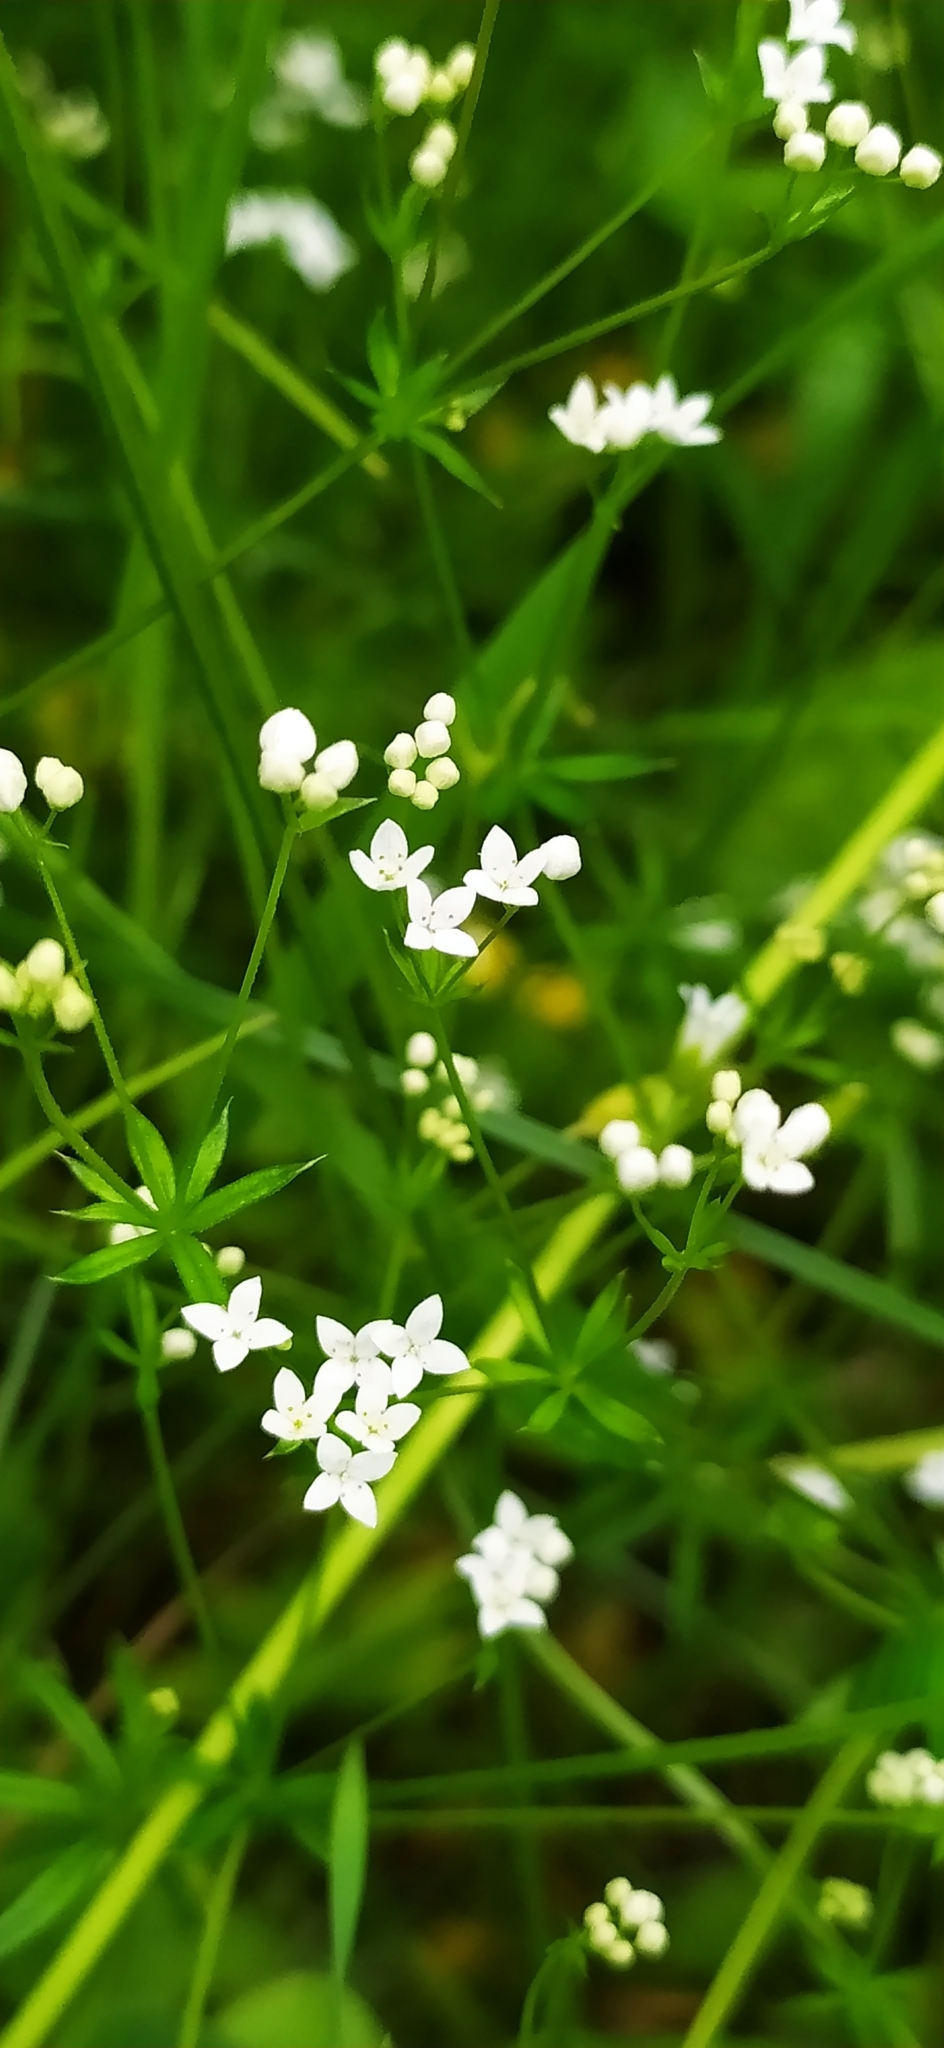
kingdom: Plantae
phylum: Tracheophyta
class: Magnoliopsida
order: Gentianales
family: Rubiaceae
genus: Galium
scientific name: Galium uliginosum
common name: Fen bedstraw
